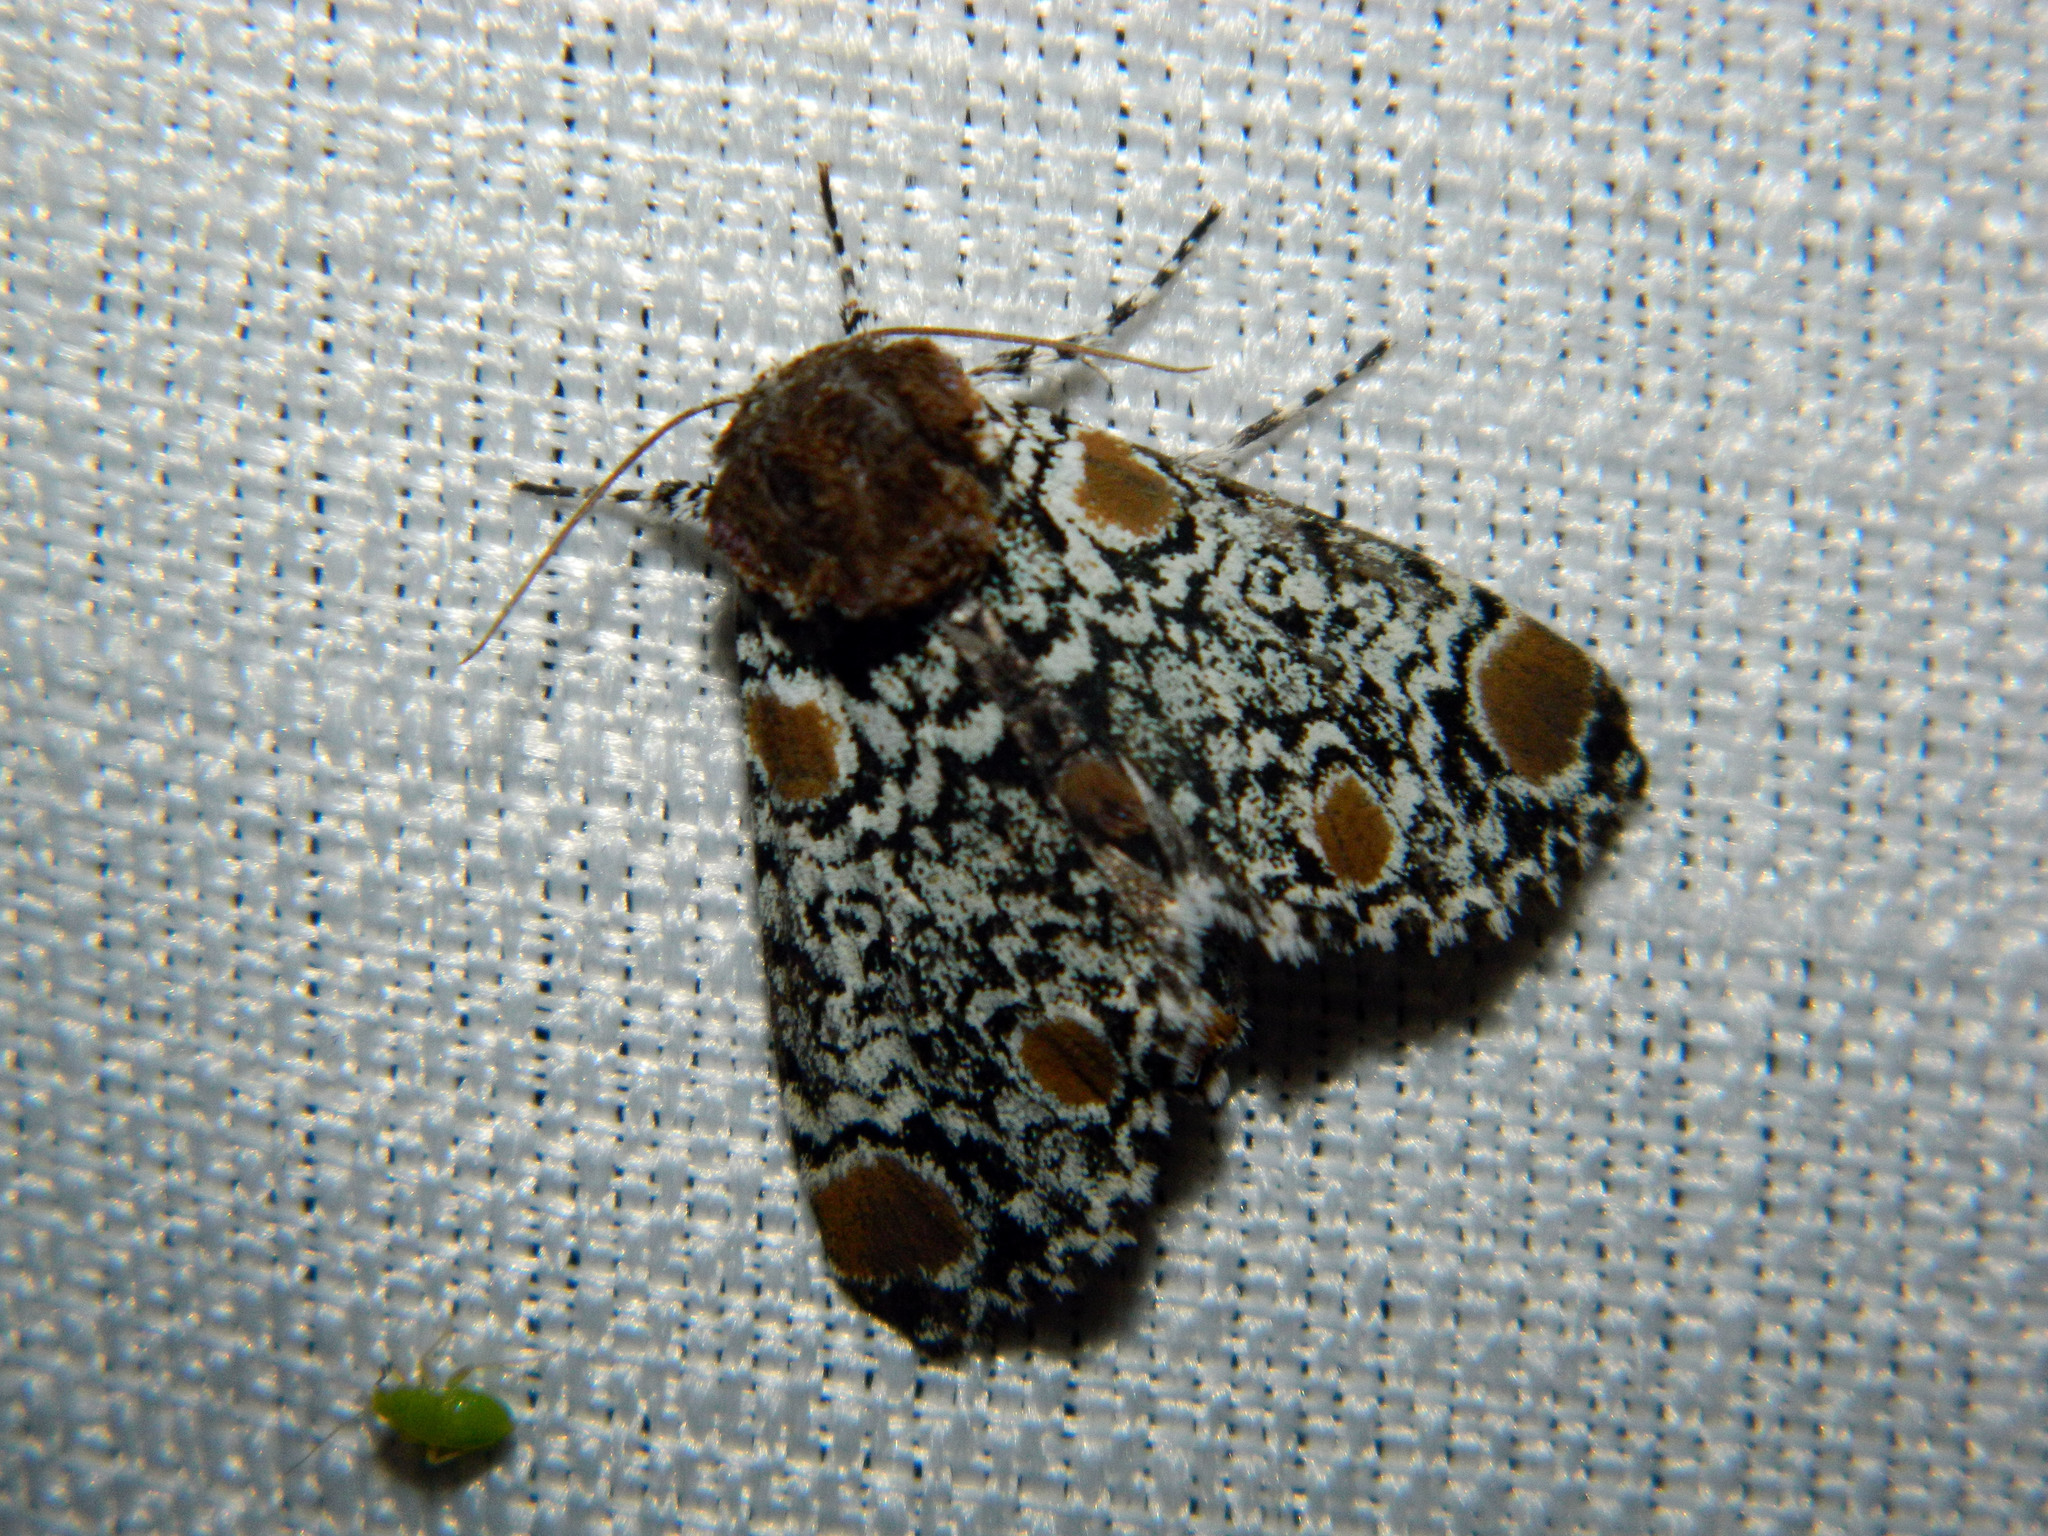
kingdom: Animalia
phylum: Arthropoda
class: Insecta
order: Lepidoptera
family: Noctuidae
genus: Harrisimemna
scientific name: Harrisimemna trisignata
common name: Harris threespot
